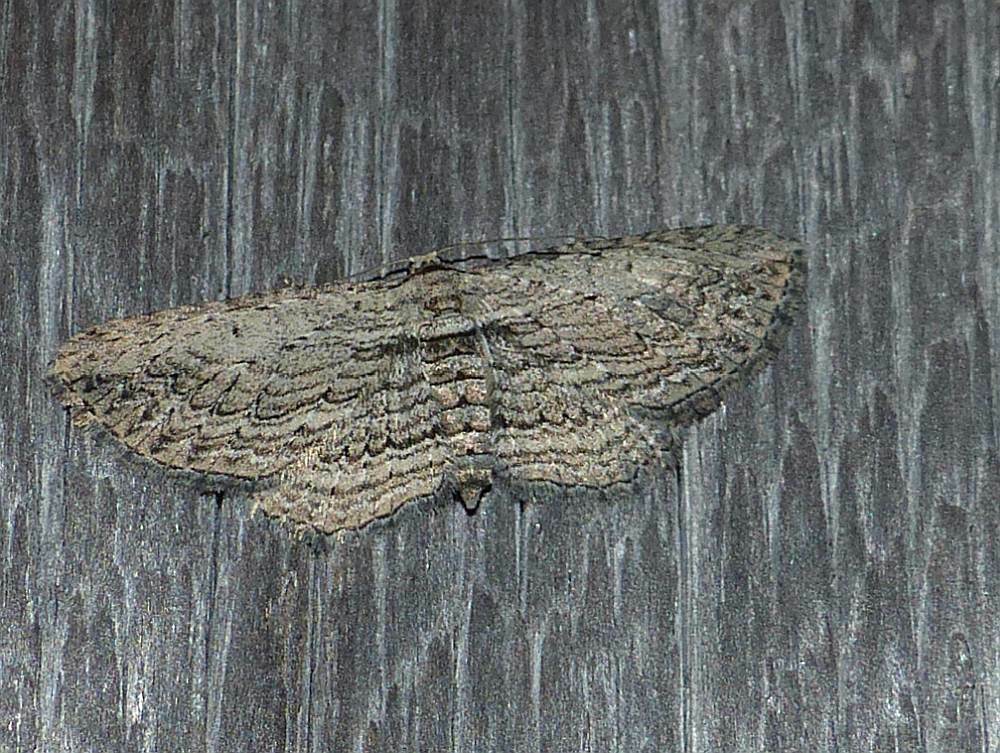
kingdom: Animalia
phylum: Arthropoda
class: Insecta
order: Lepidoptera
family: Geometridae
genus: Horisme
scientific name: Horisme intestinata
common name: Brown bark carpet
